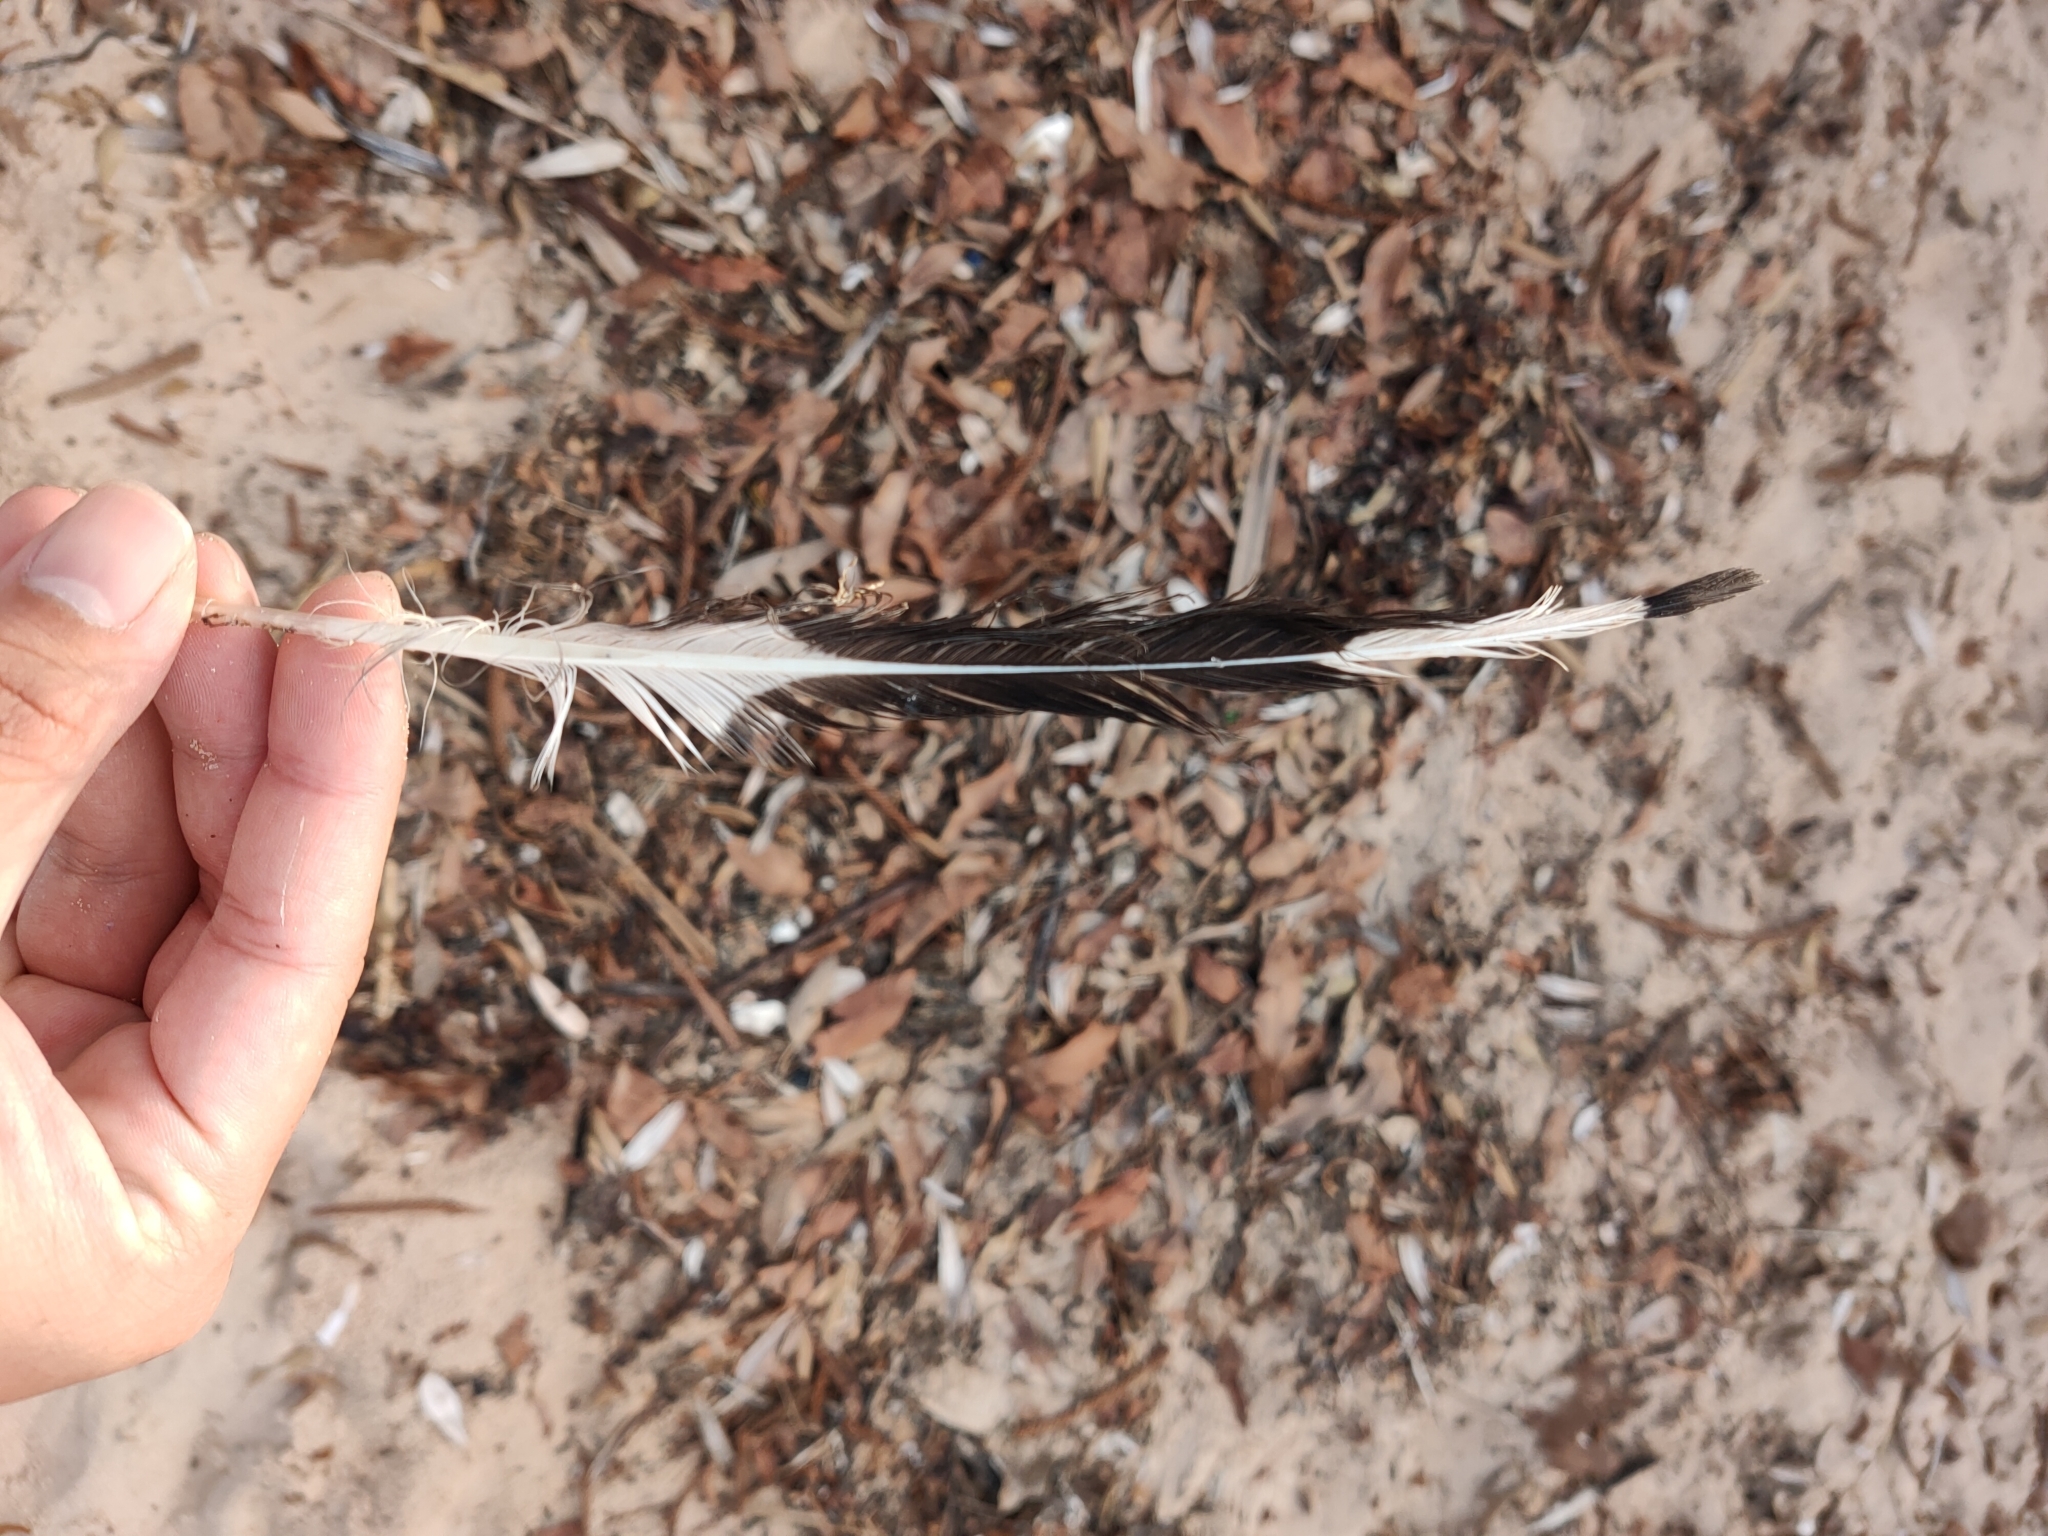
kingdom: Animalia
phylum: Chordata
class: Aves
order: Charadriiformes
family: Laridae
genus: Chroicocephalus
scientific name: Chroicocephalus novaehollandiae
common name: Silver gull
